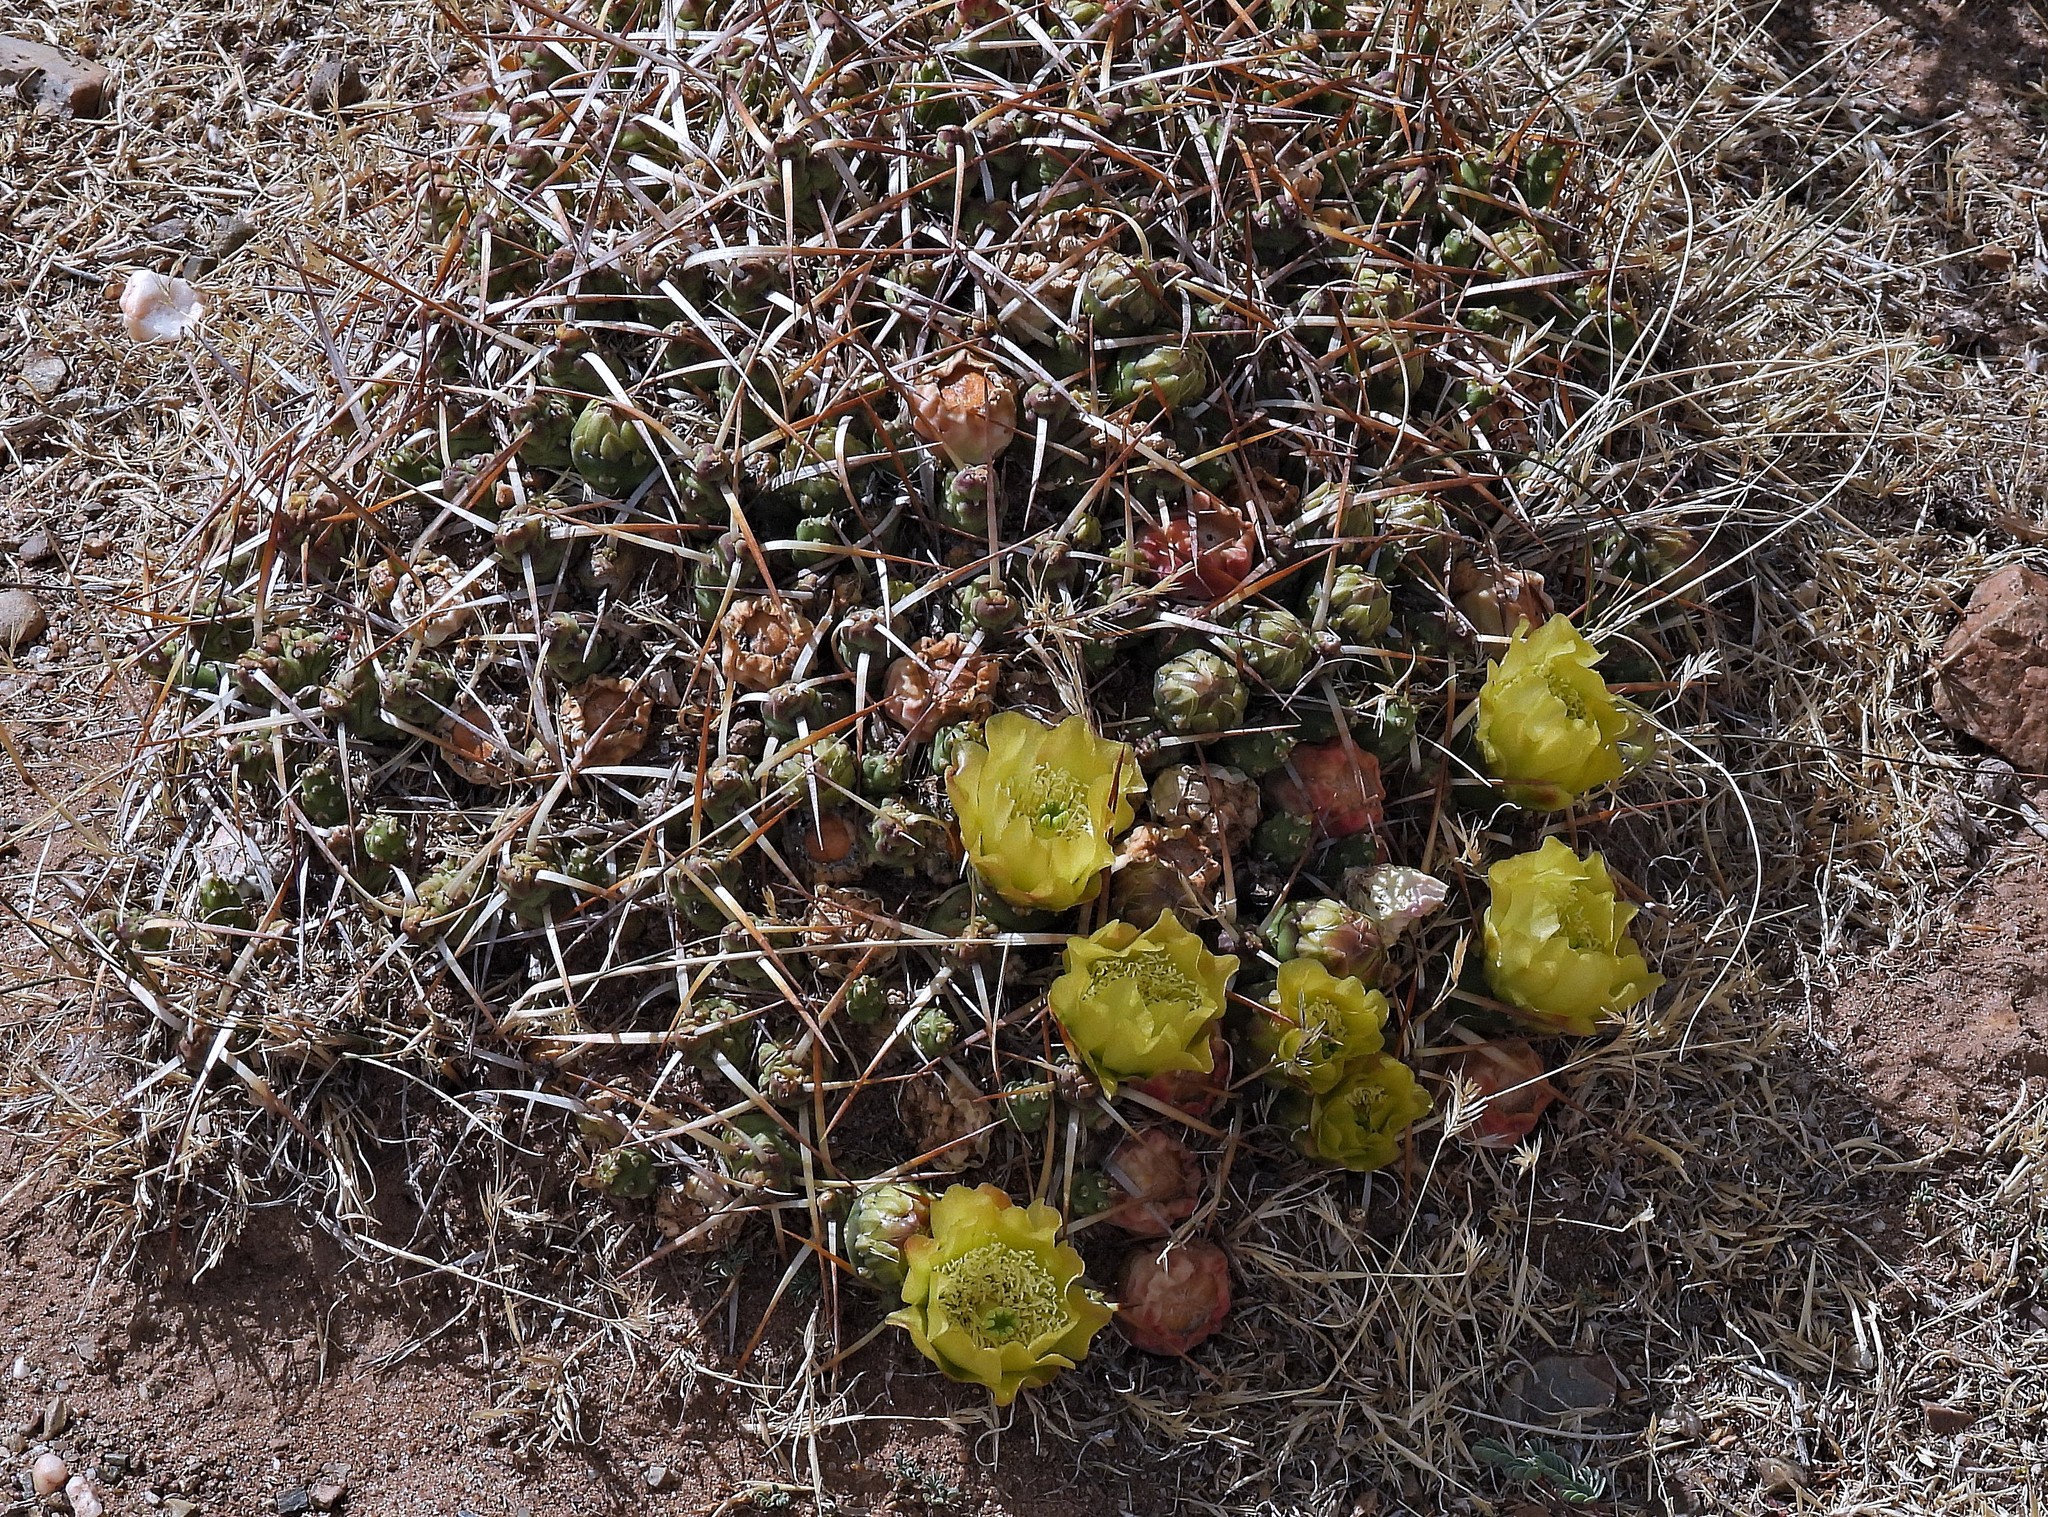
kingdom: Plantae
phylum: Tracheophyta
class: Magnoliopsida
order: Caryophyllales
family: Cactaceae
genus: Maihueniopsis
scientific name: Maihueniopsis glomerata
